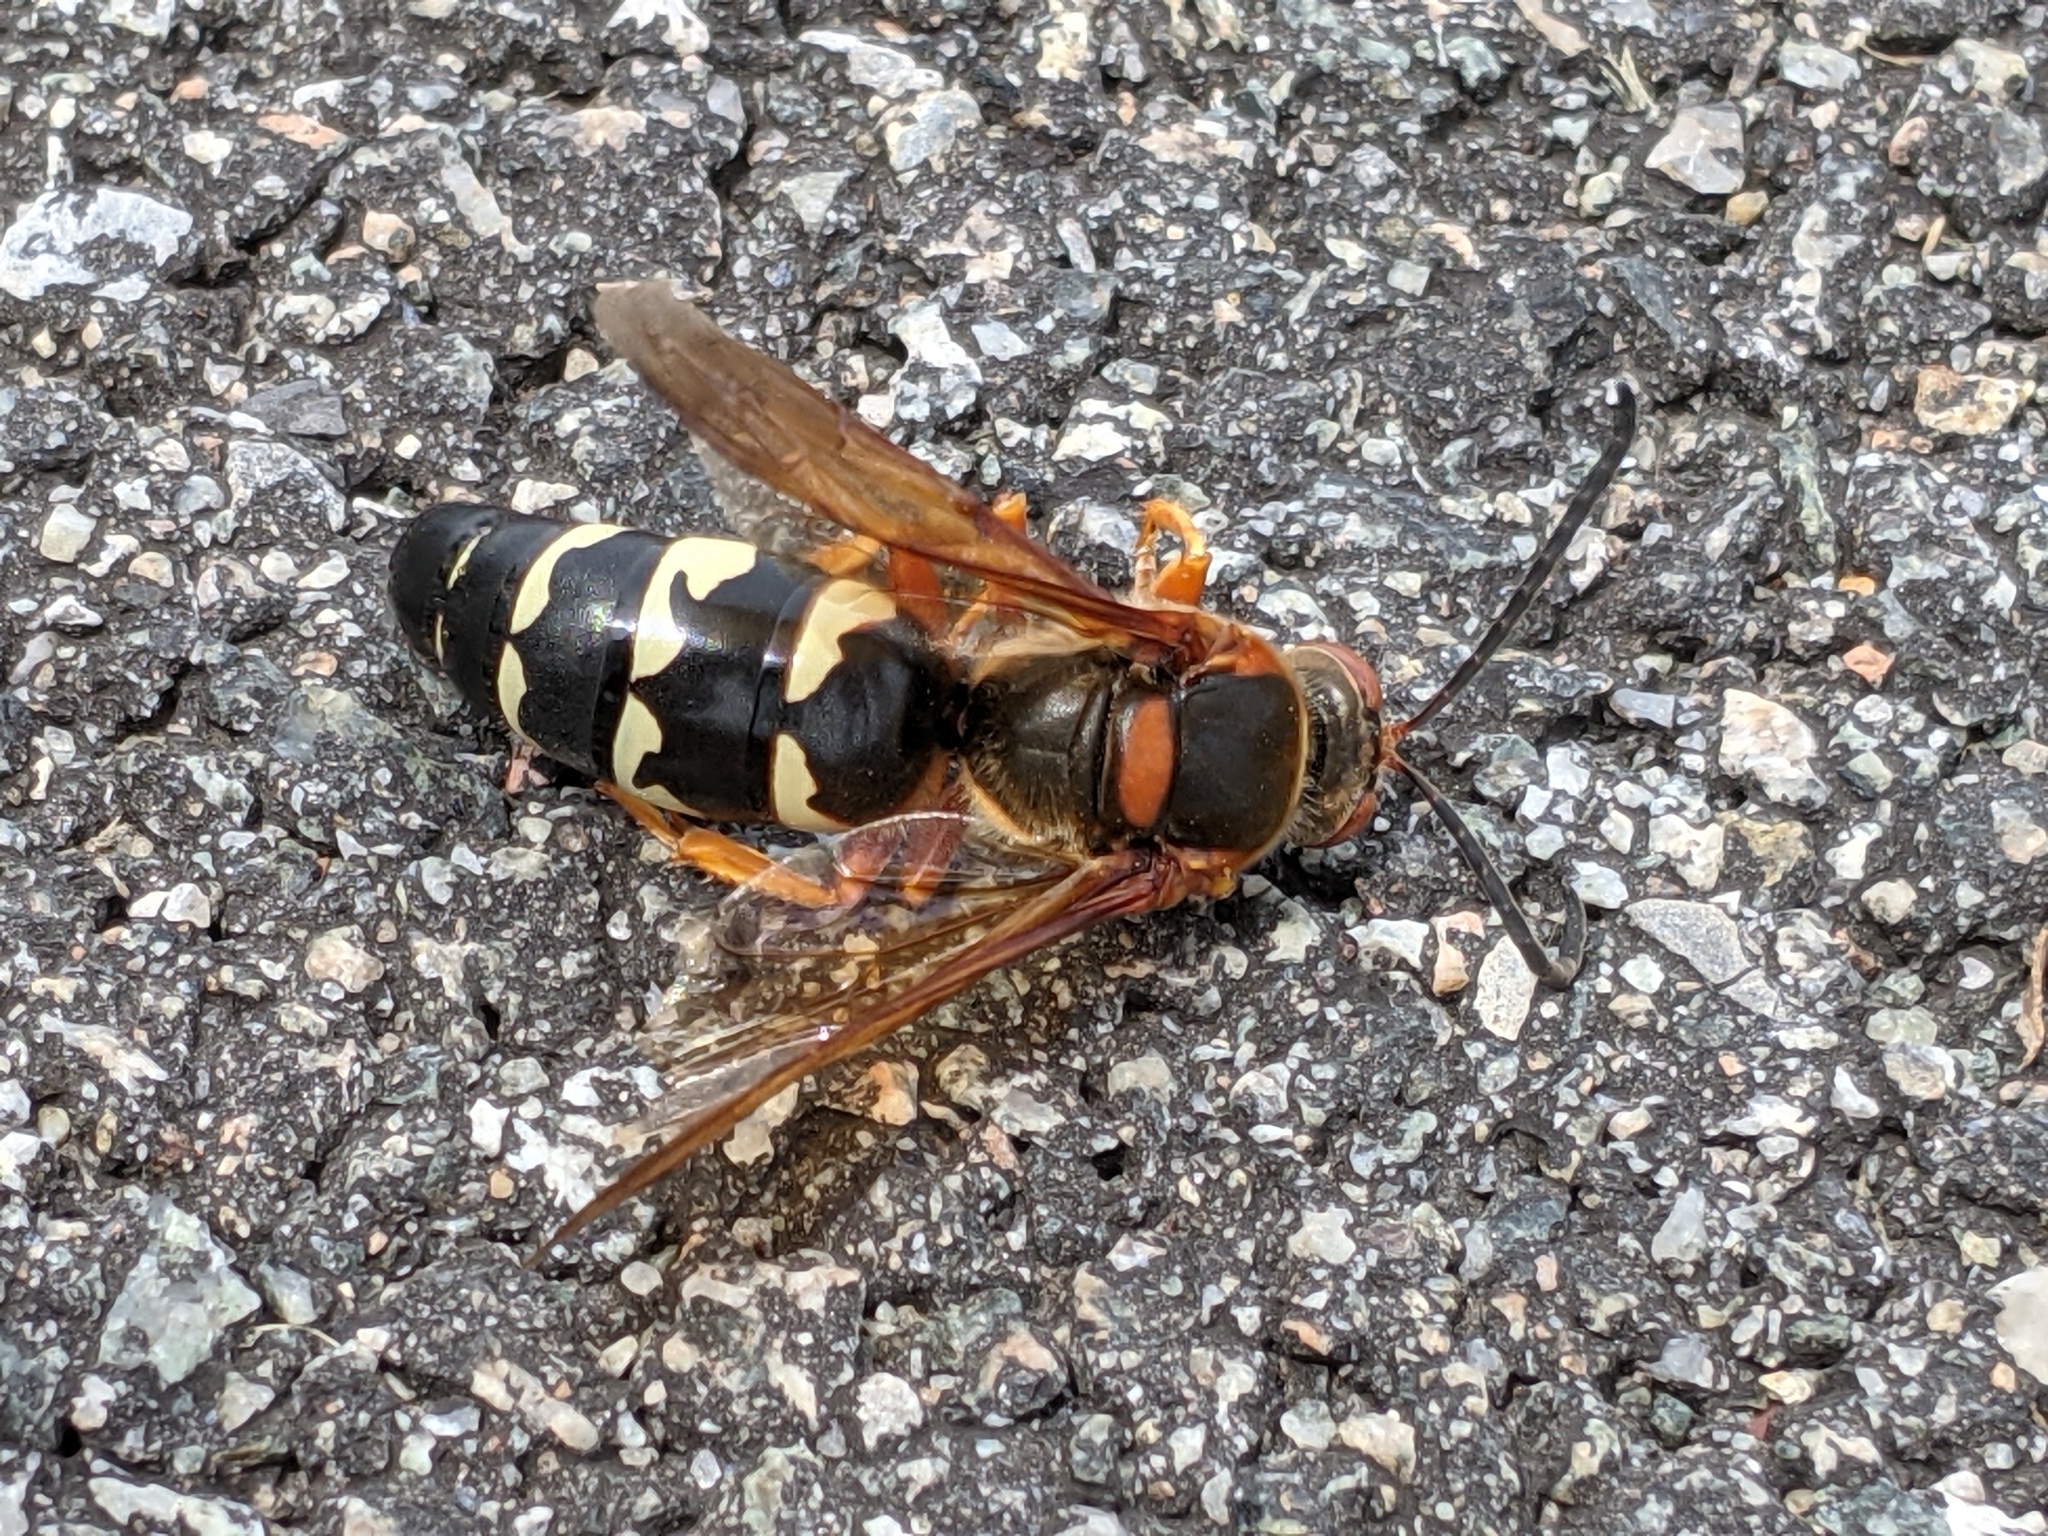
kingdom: Animalia
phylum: Arthropoda
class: Insecta
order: Hymenoptera
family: Crabronidae
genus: Sphecius
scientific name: Sphecius speciosus
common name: Cicada killer
